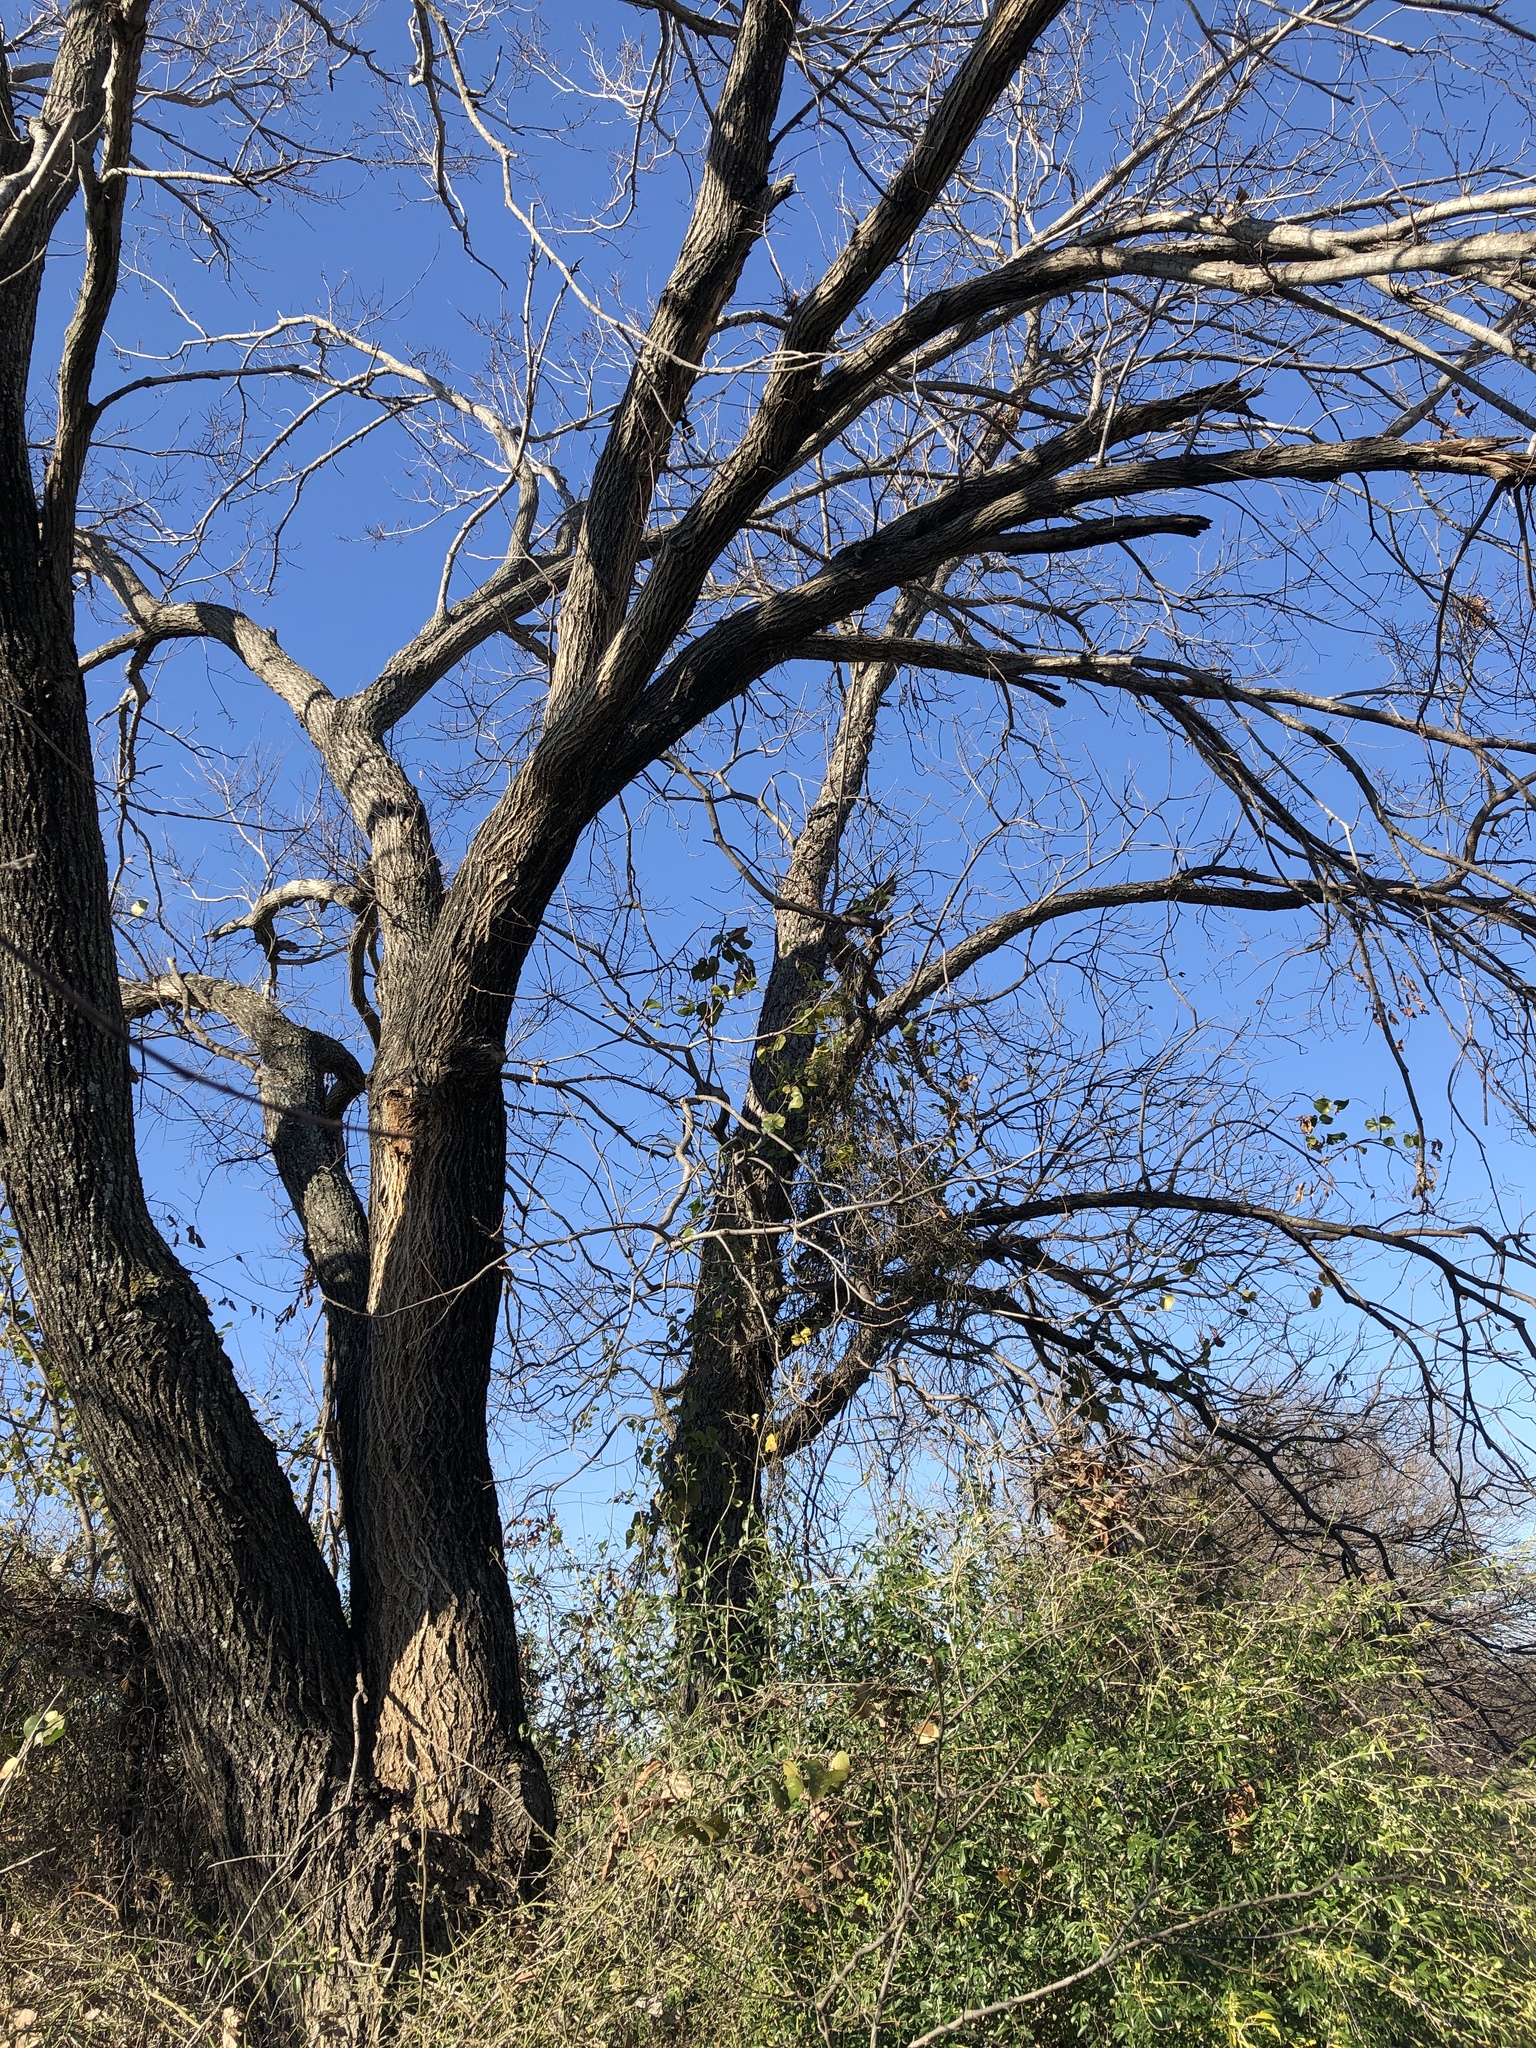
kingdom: Plantae
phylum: Tracheophyta
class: Magnoliopsida
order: Fagales
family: Juglandaceae
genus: Carya
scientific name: Carya illinoinensis
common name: Pecan
